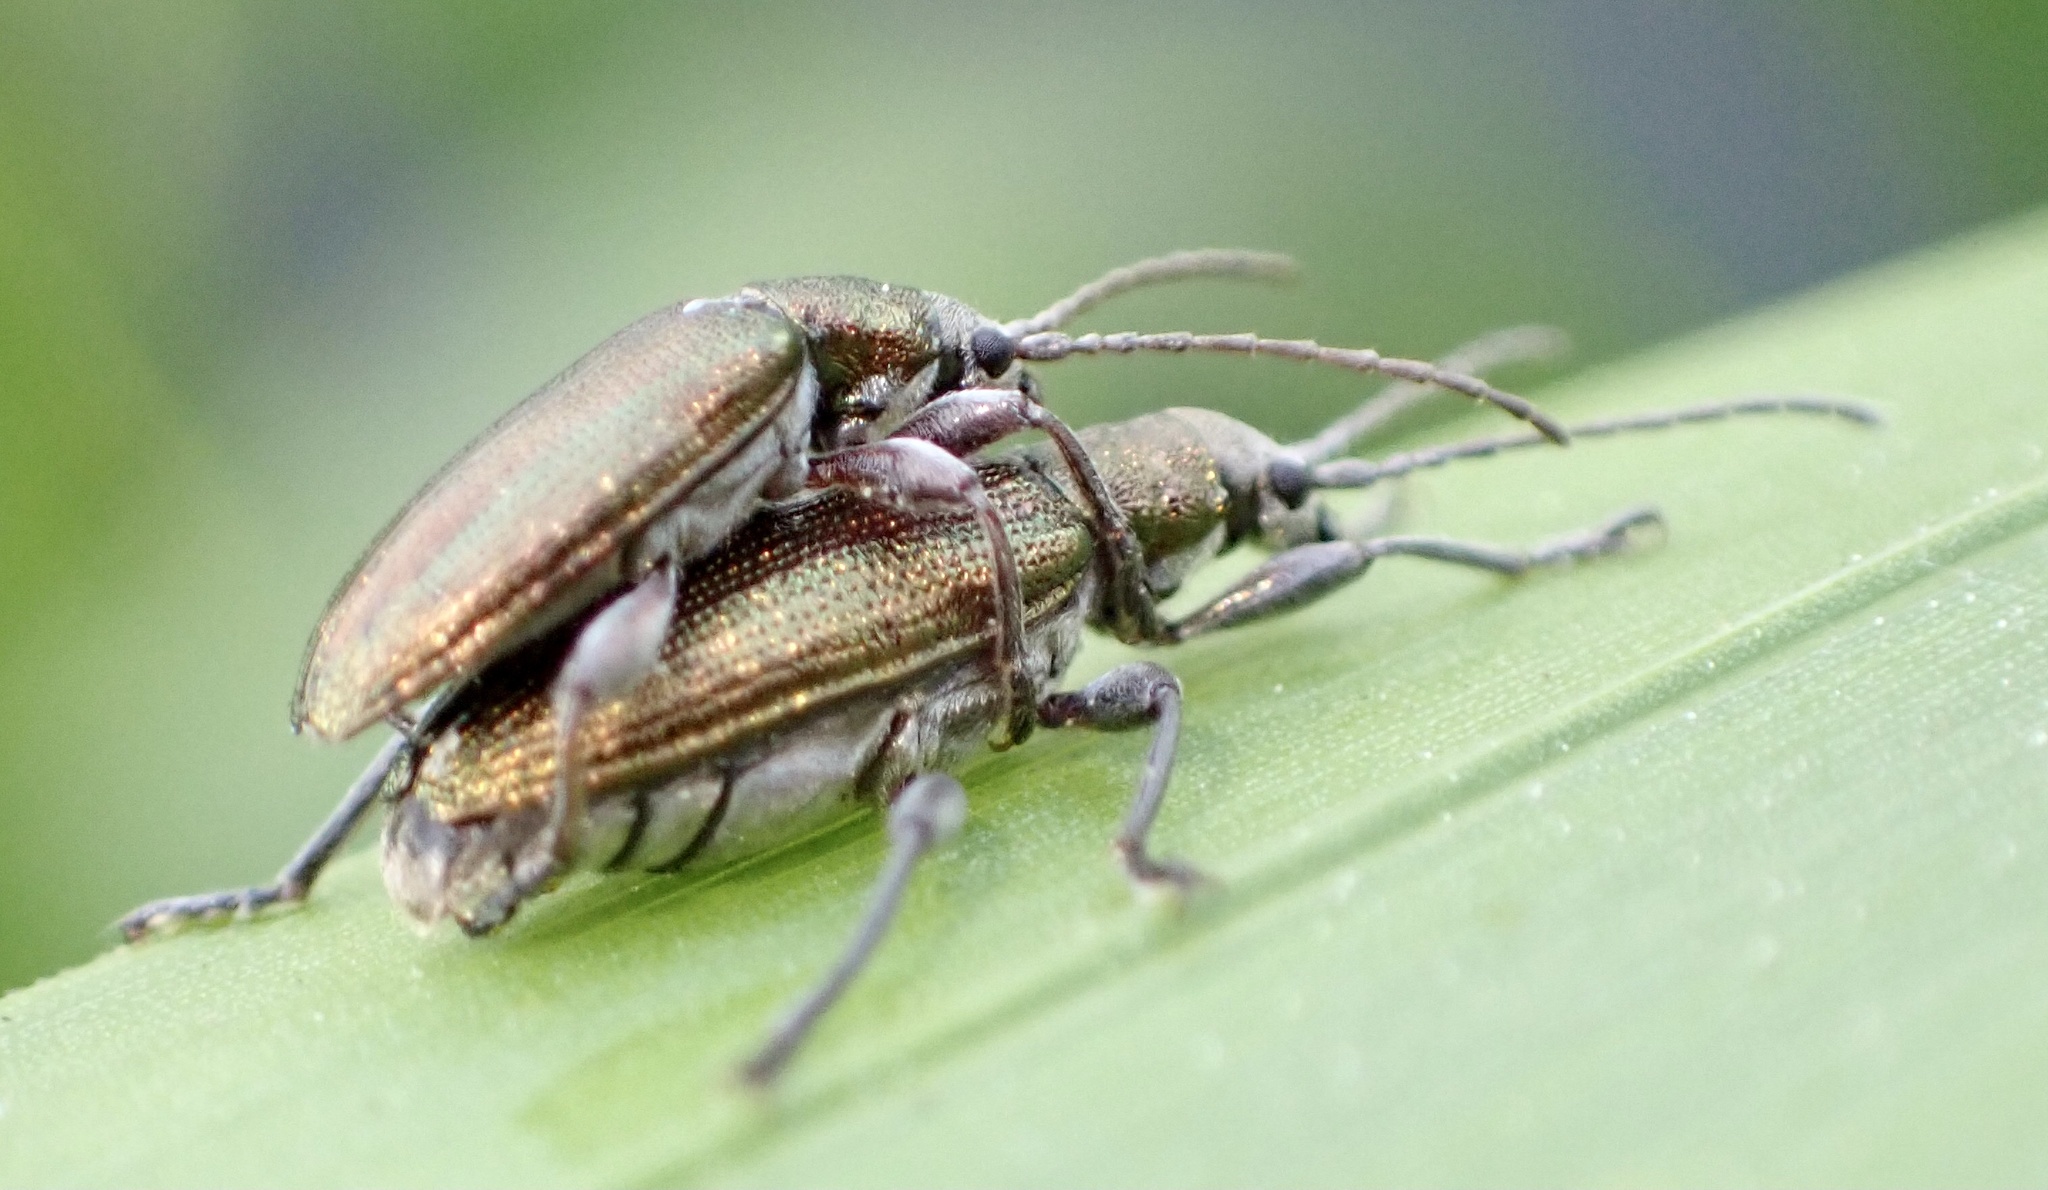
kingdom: Animalia
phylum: Arthropoda
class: Insecta
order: Coleoptera
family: Chrysomelidae
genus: Donacia
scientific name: Donacia semicuprea
